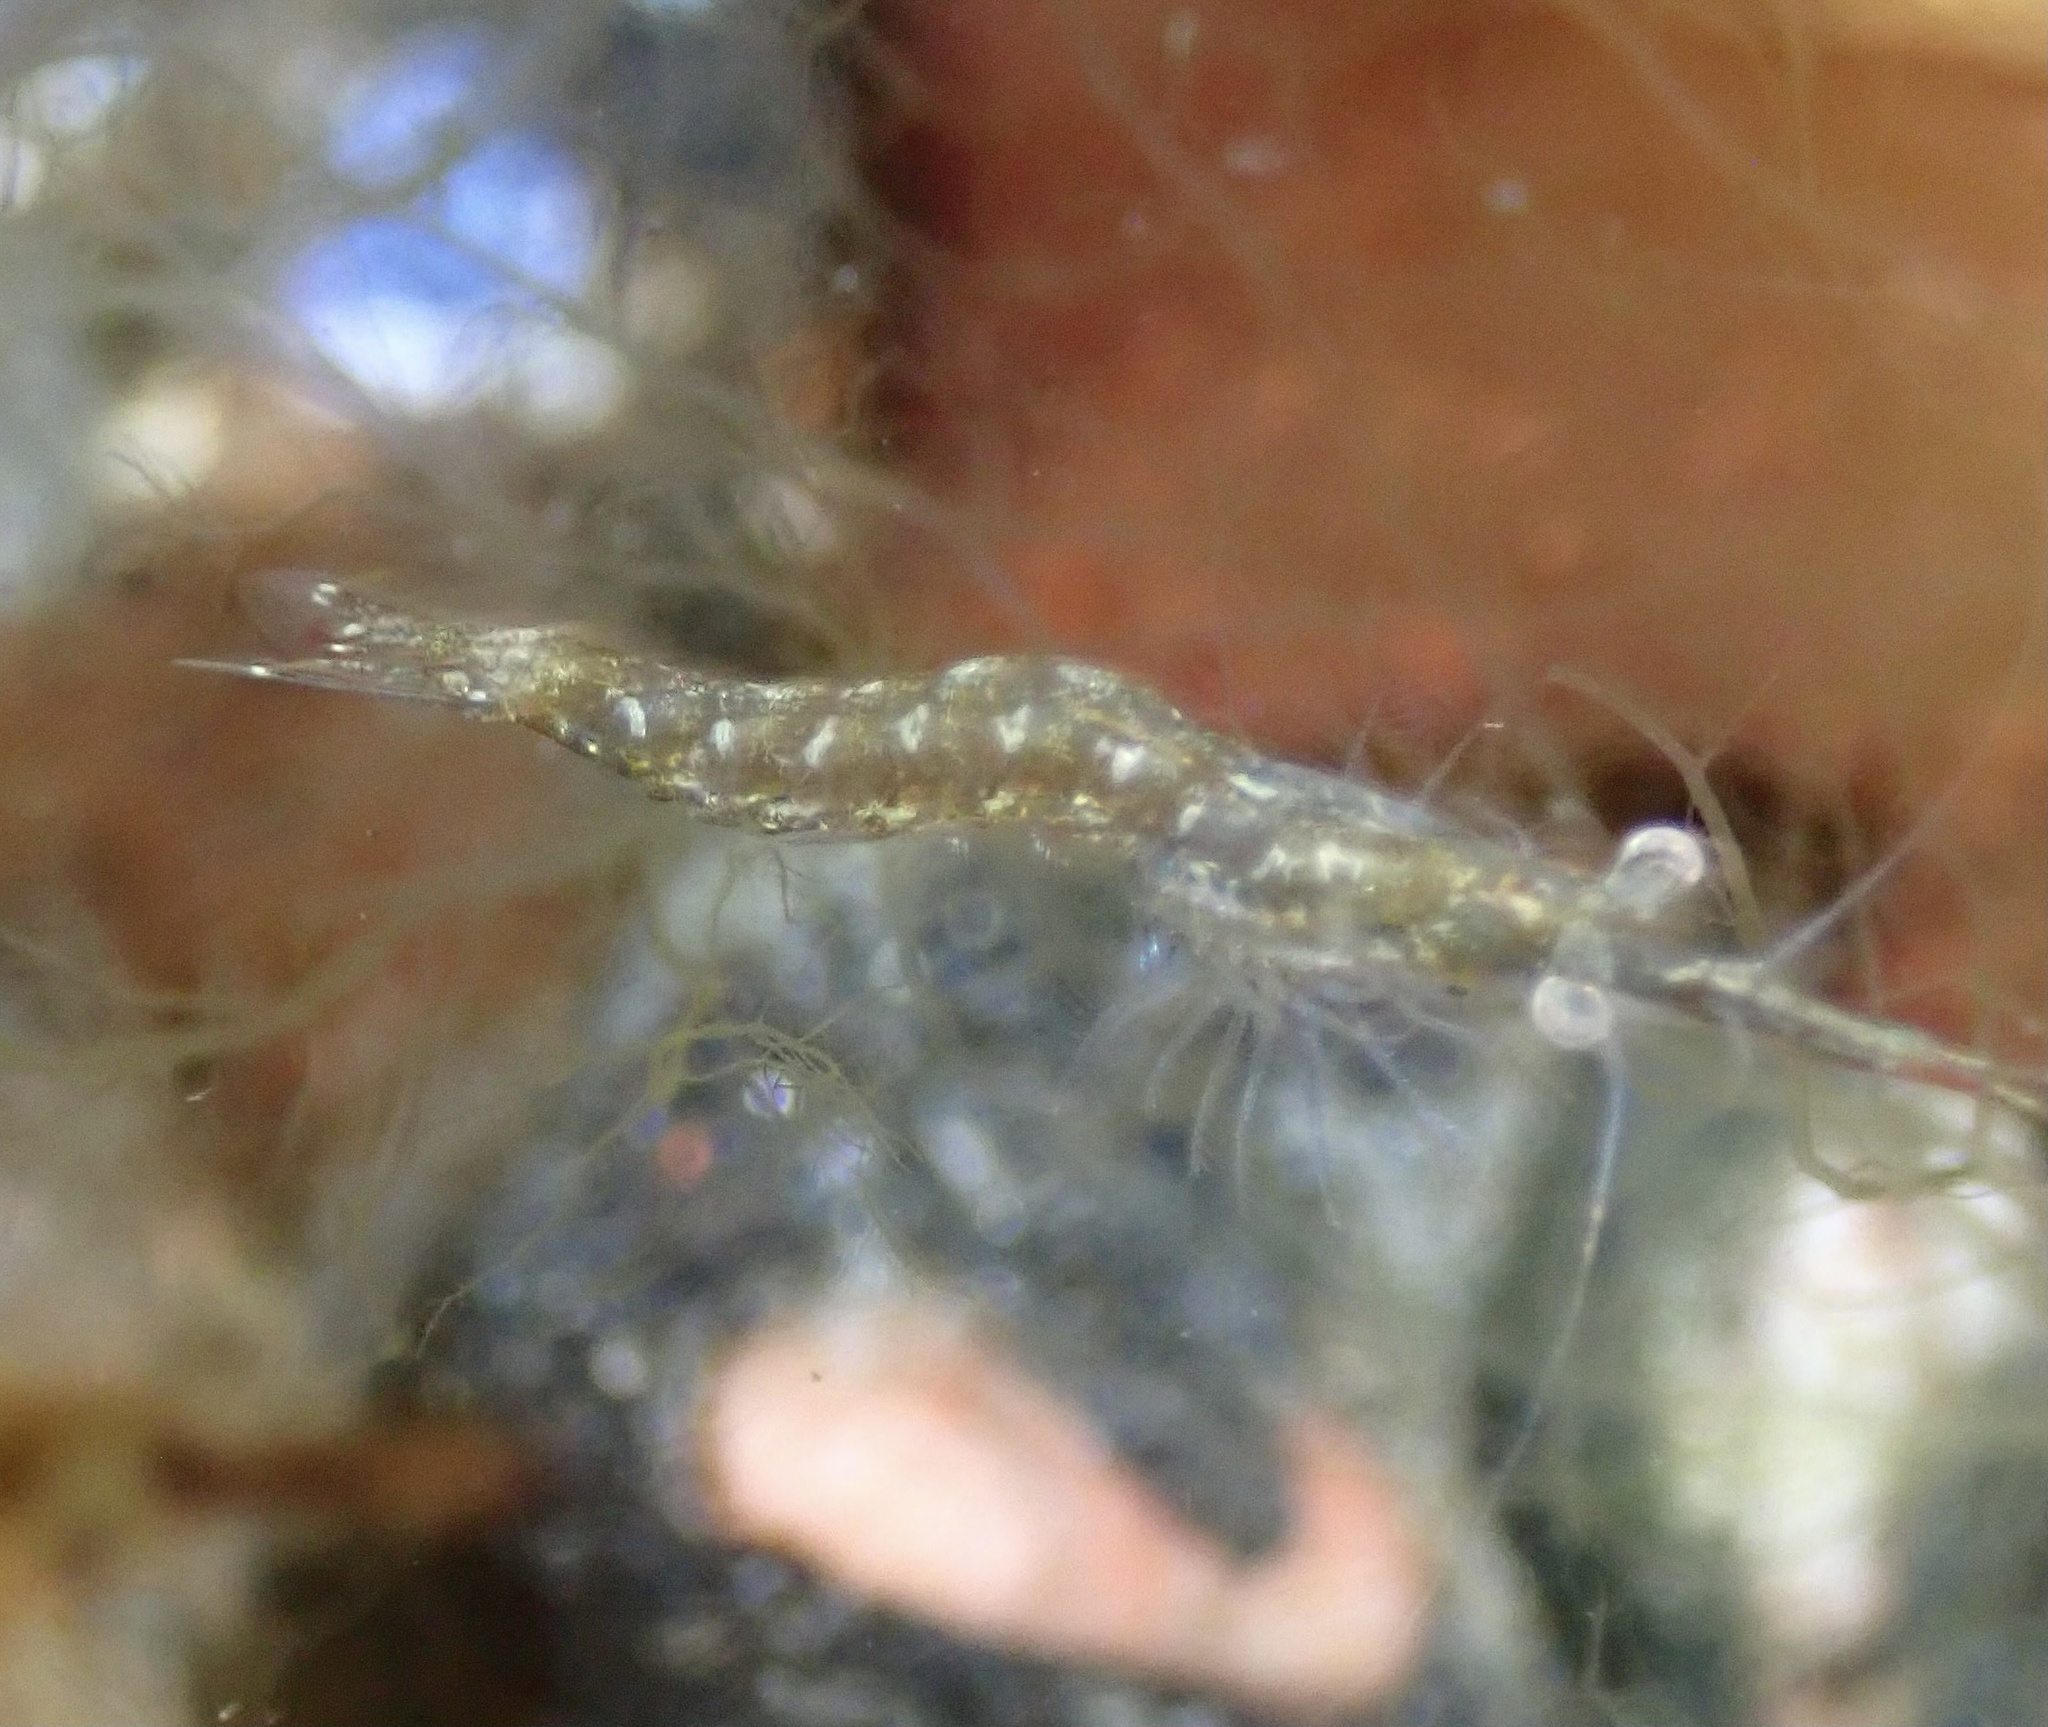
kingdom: Animalia
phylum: Arthropoda
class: Malacostraca
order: Mysida
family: Mysidae
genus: Praunus
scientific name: Praunus flexuosus
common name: Chameleon shrimp
